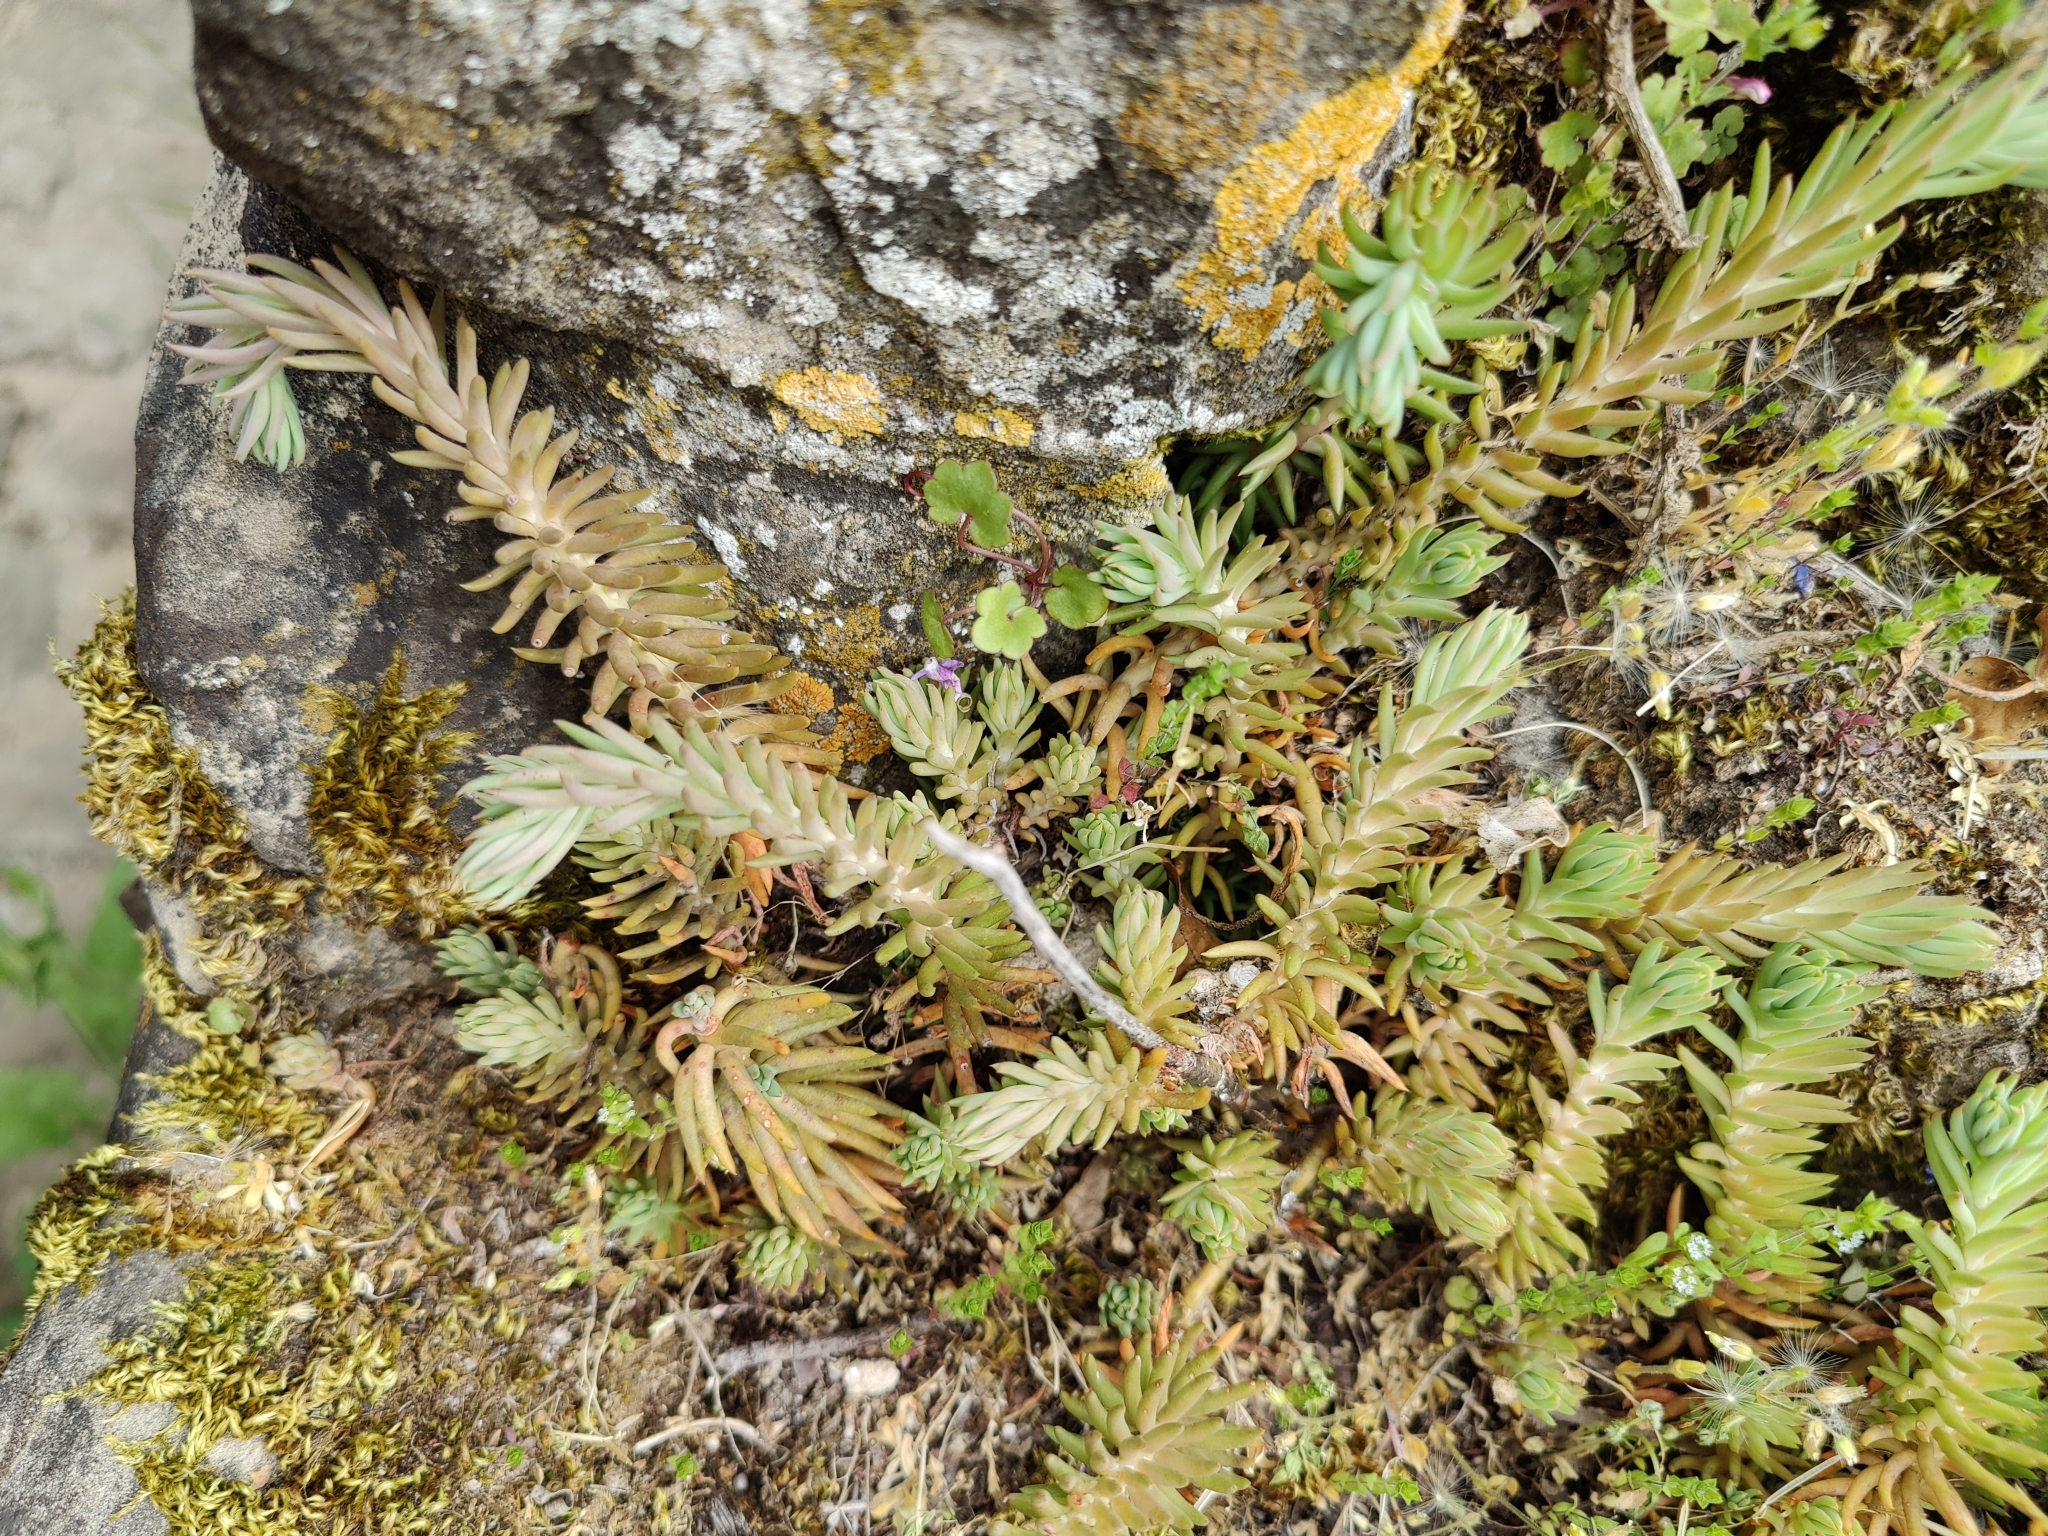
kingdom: Plantae
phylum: Tracheophyta
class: Magnoliopsida
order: Saxifragales
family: Crassulaceae
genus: Petrosedum
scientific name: Petrosedum rupestre
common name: Jenny's stonecrop
